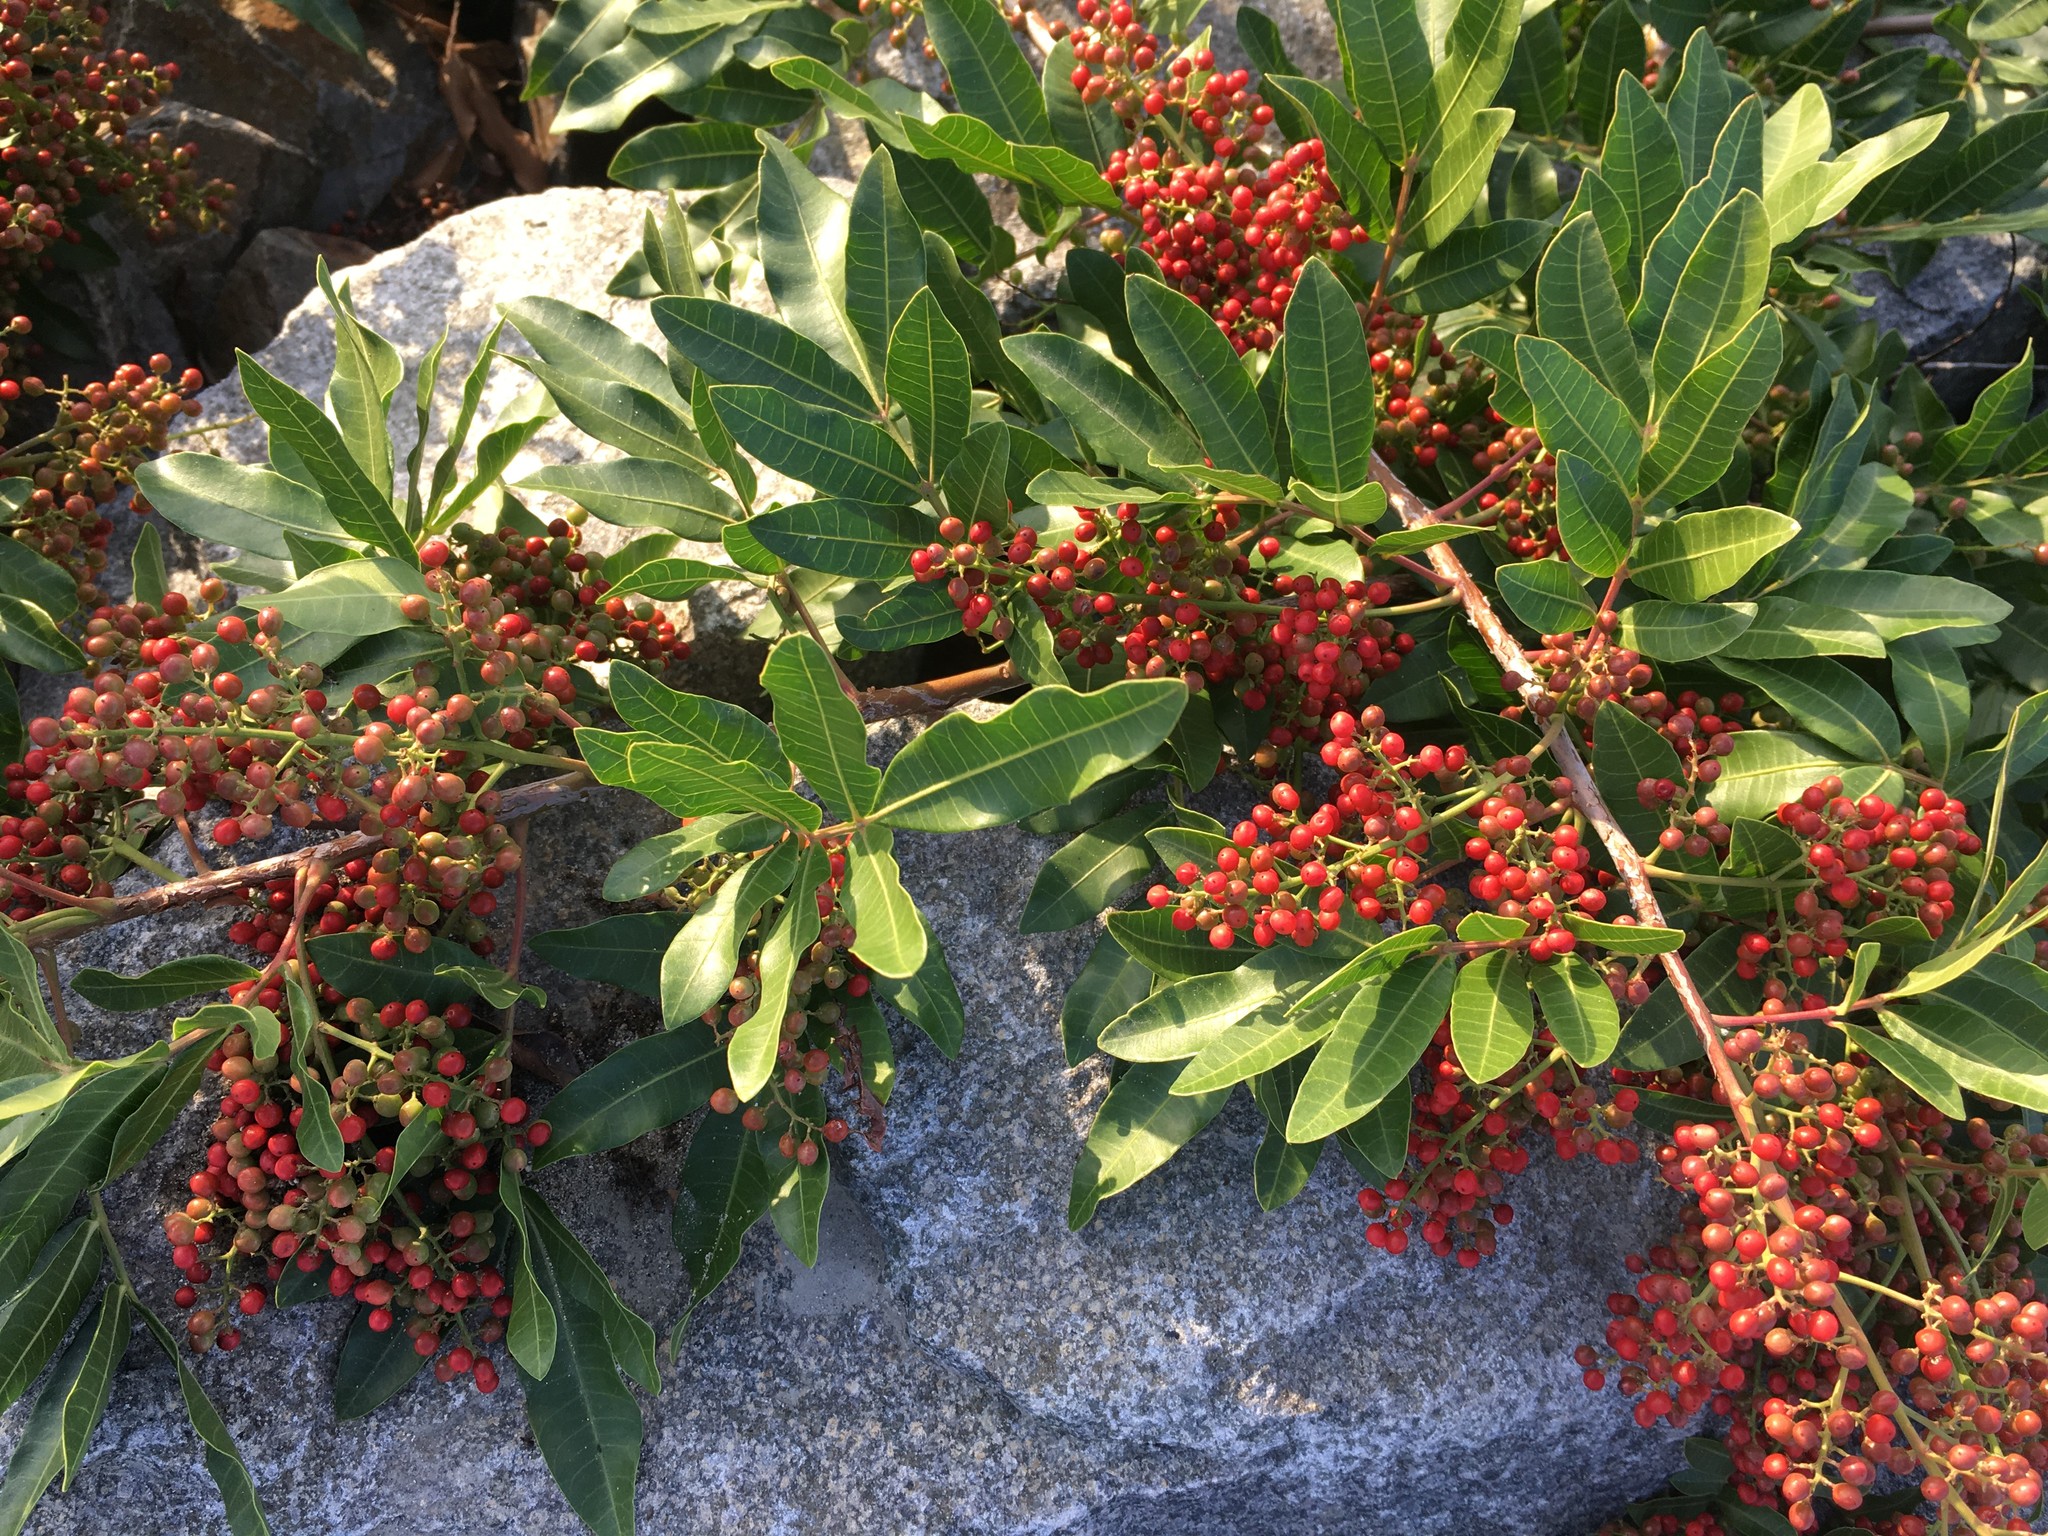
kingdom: Plantae
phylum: Tracheophyta
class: Magnoliopsida
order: Sapindales
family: Anacardiaceae
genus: Schinus
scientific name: Schinus terebinthifolia
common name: Brazilian peppertree
